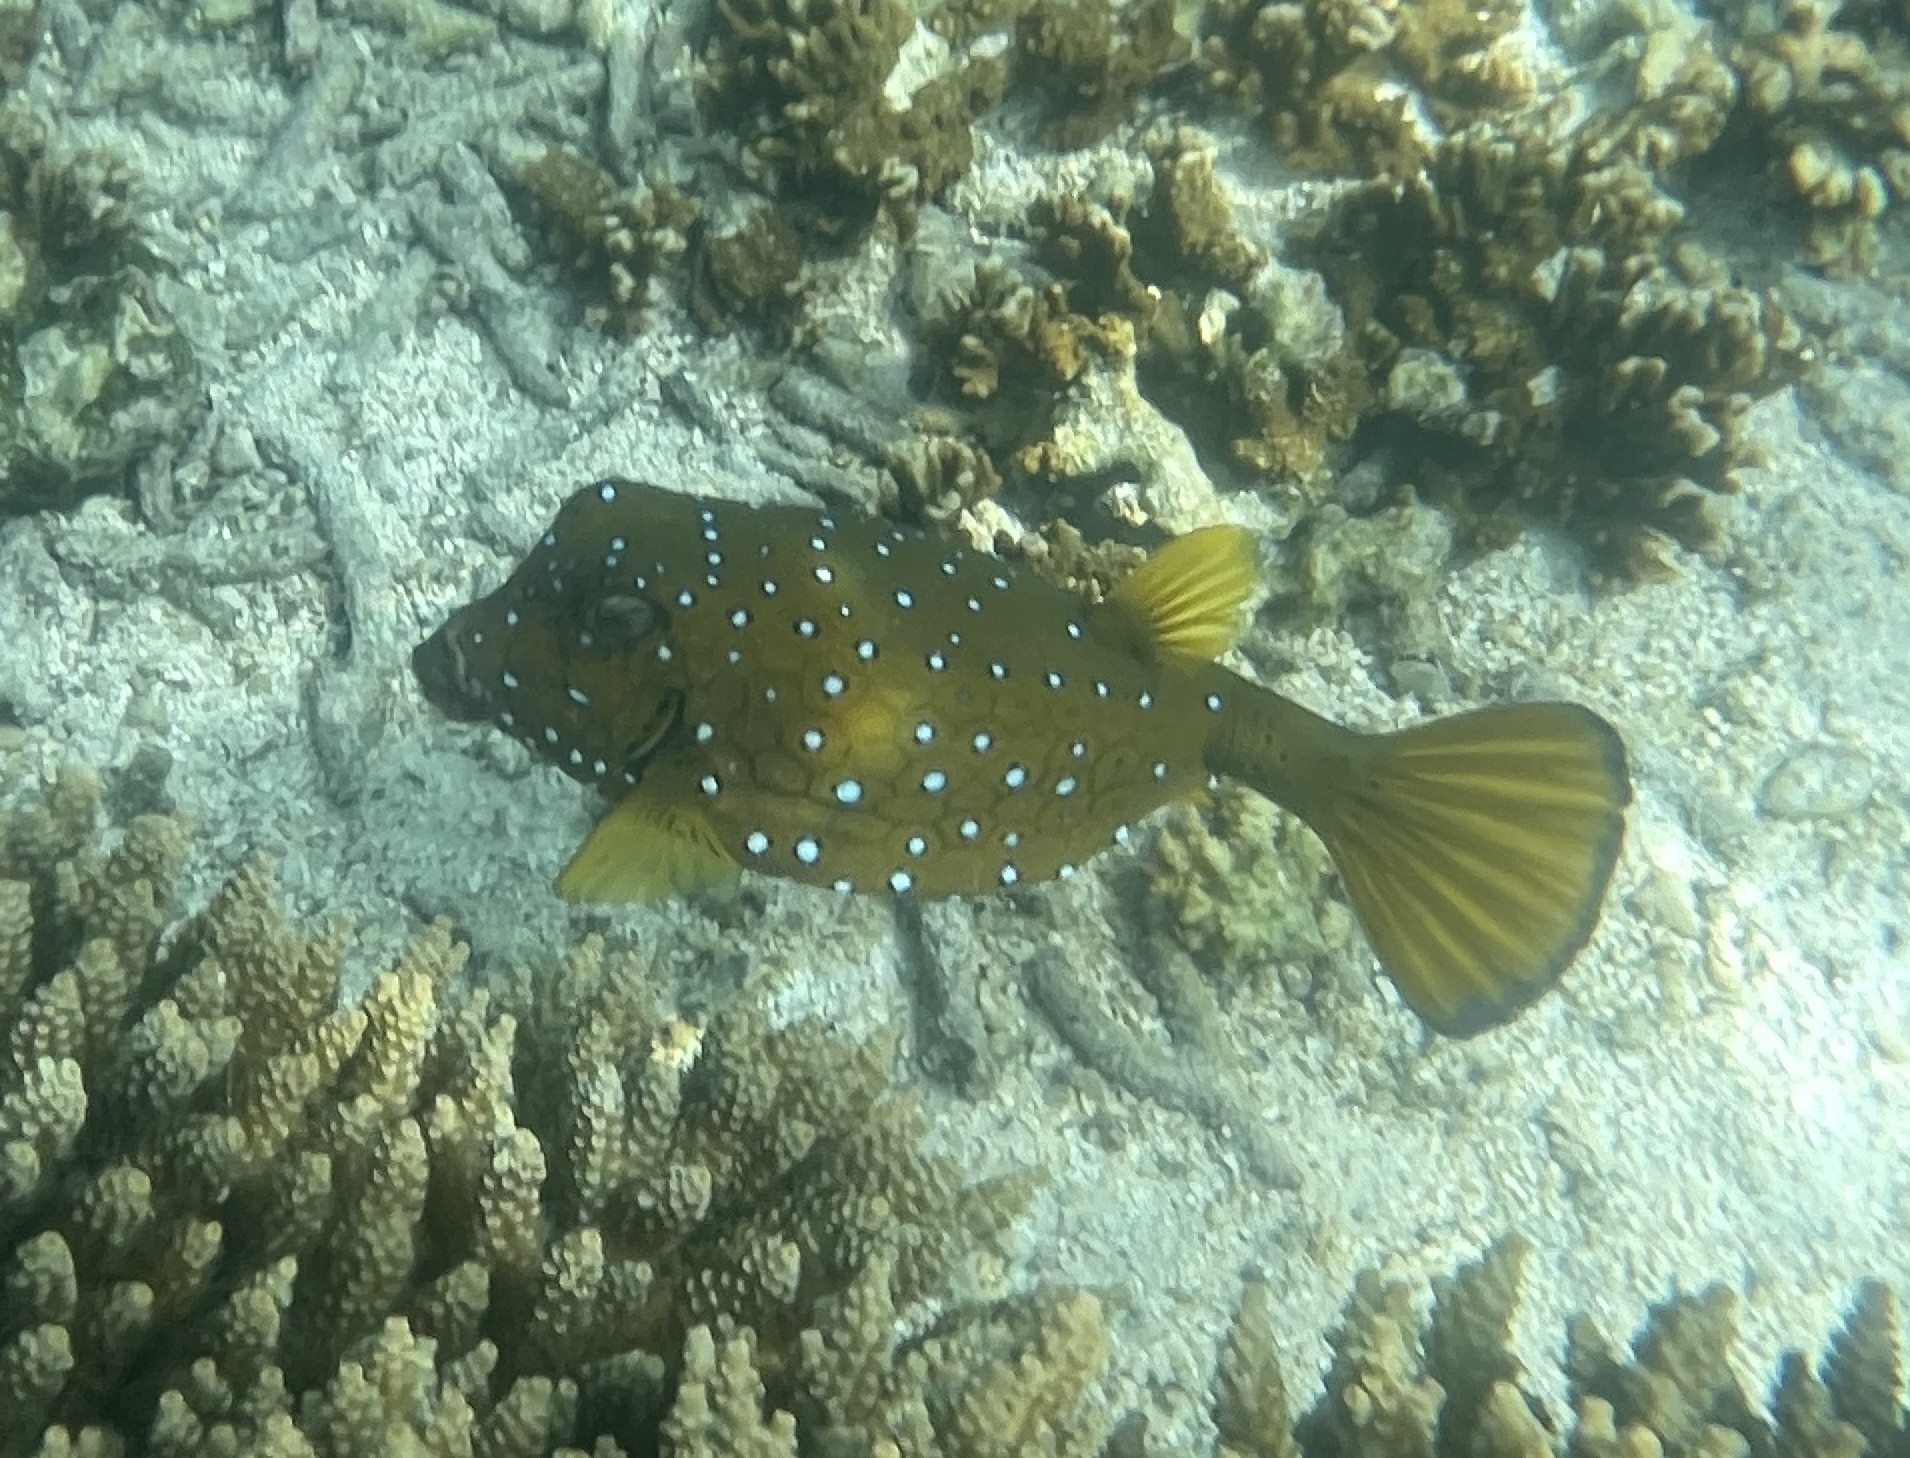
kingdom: Animalia
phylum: Chordata
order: Tetraodontiformes
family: Ostraciidae
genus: Ostracion
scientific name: Ostracion cubicus
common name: Cube trunkfish
